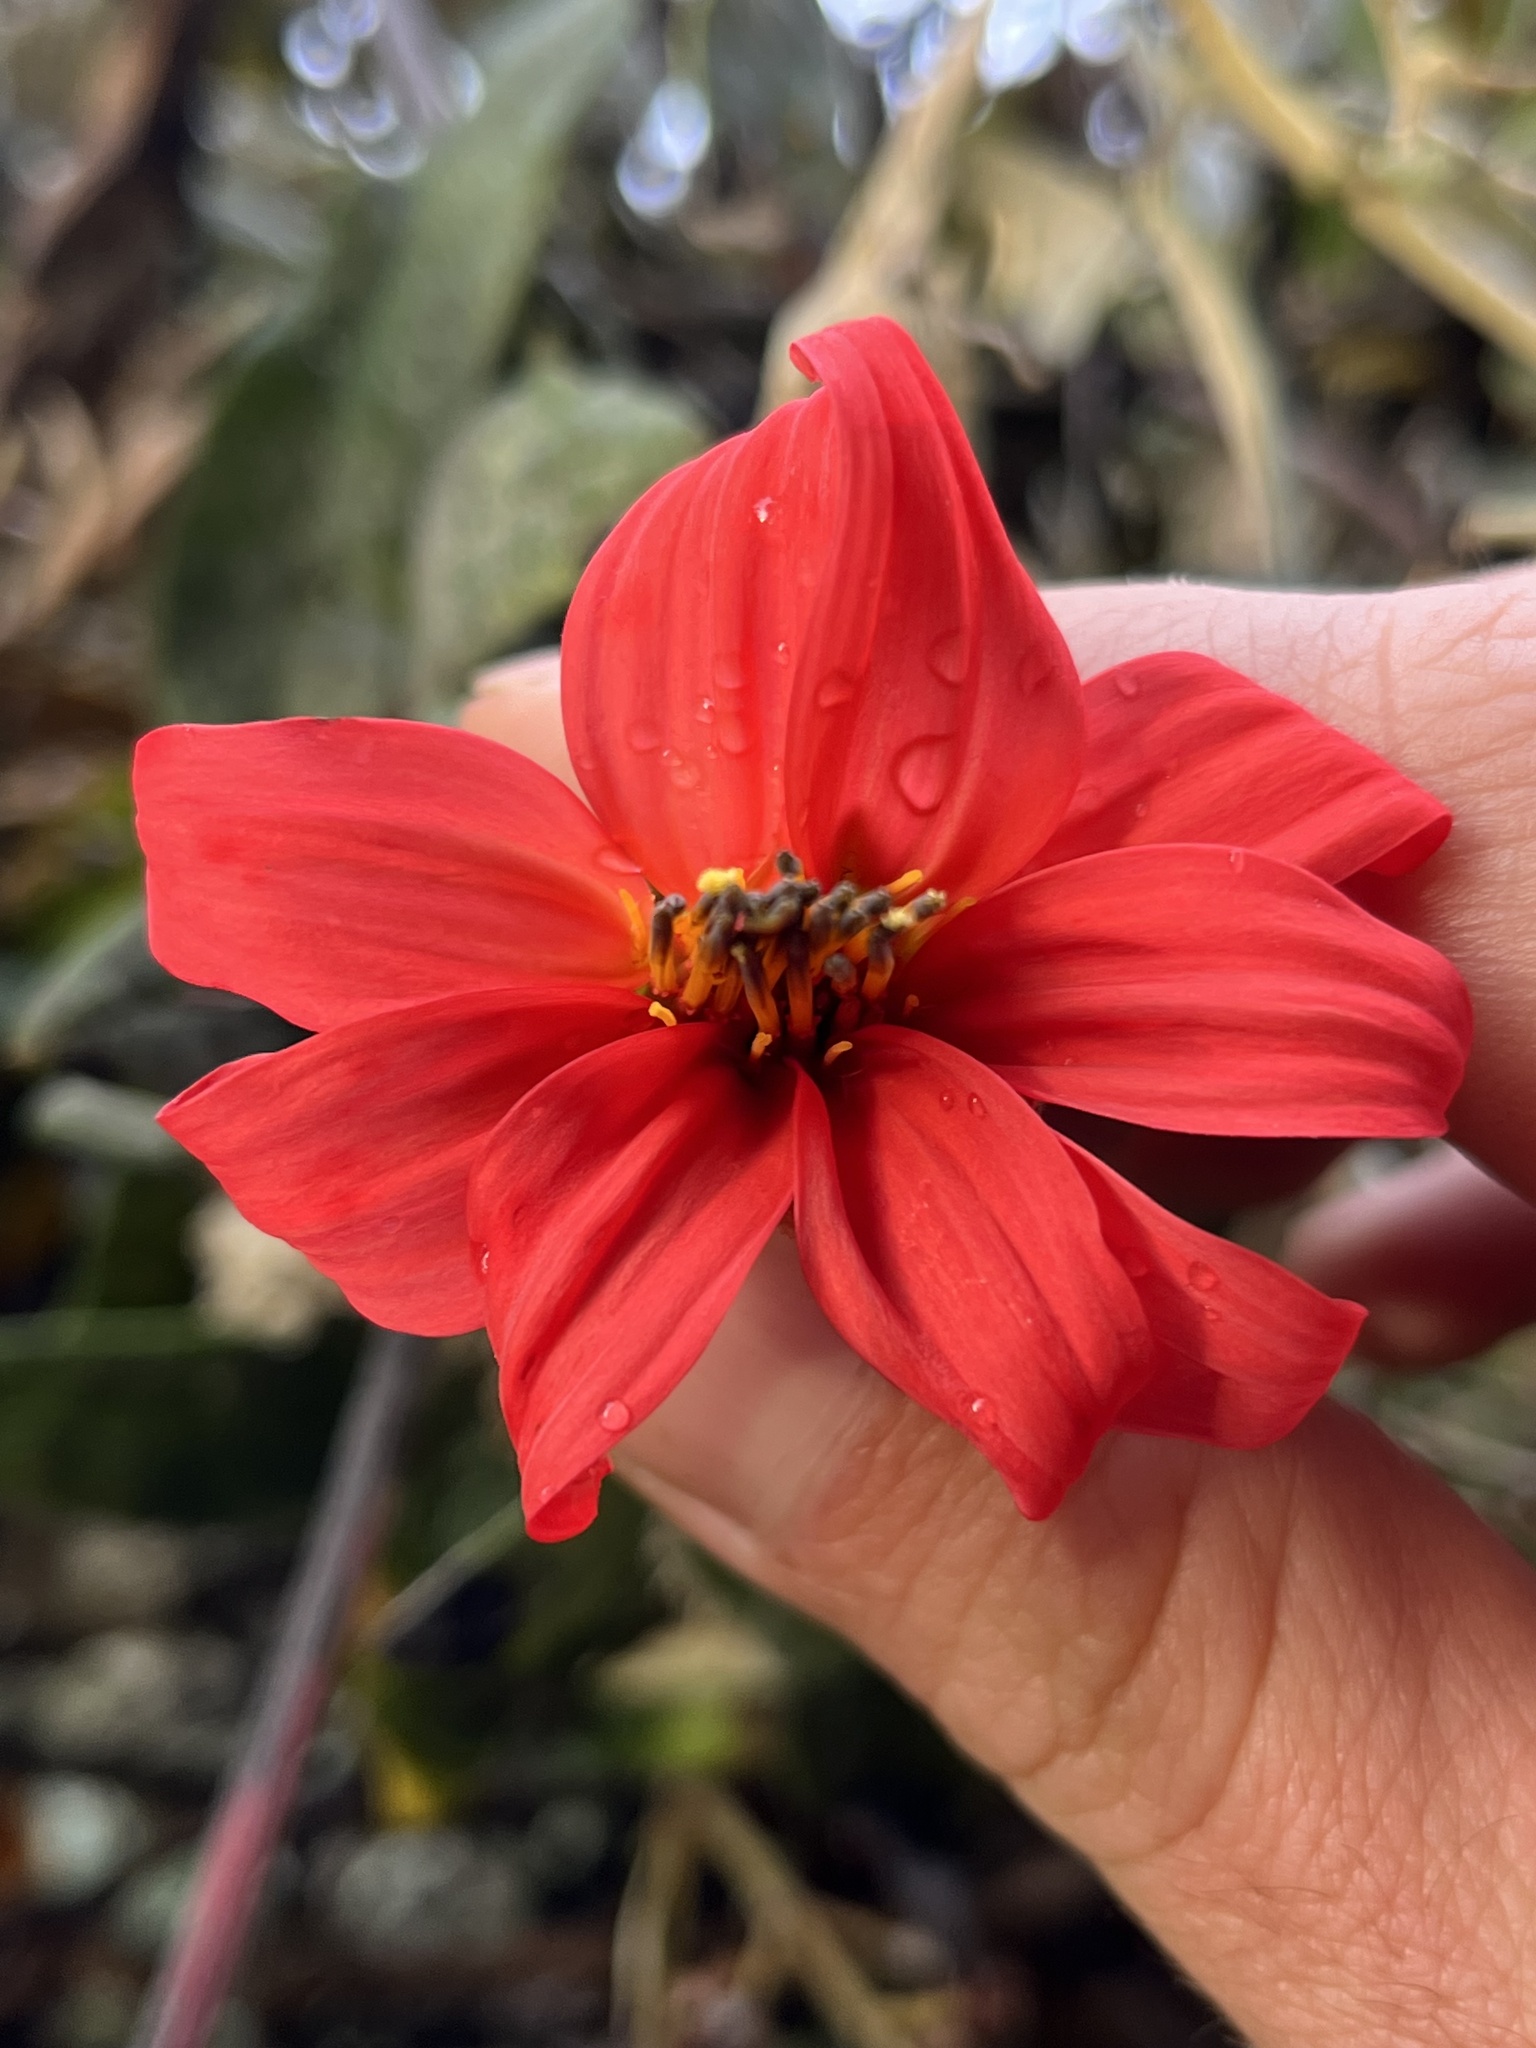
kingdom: Plantae
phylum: Tracheophyta
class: Magnoliopsida
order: Asterales
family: Asteraceae
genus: Mutisia
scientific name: Mutisia clematis
